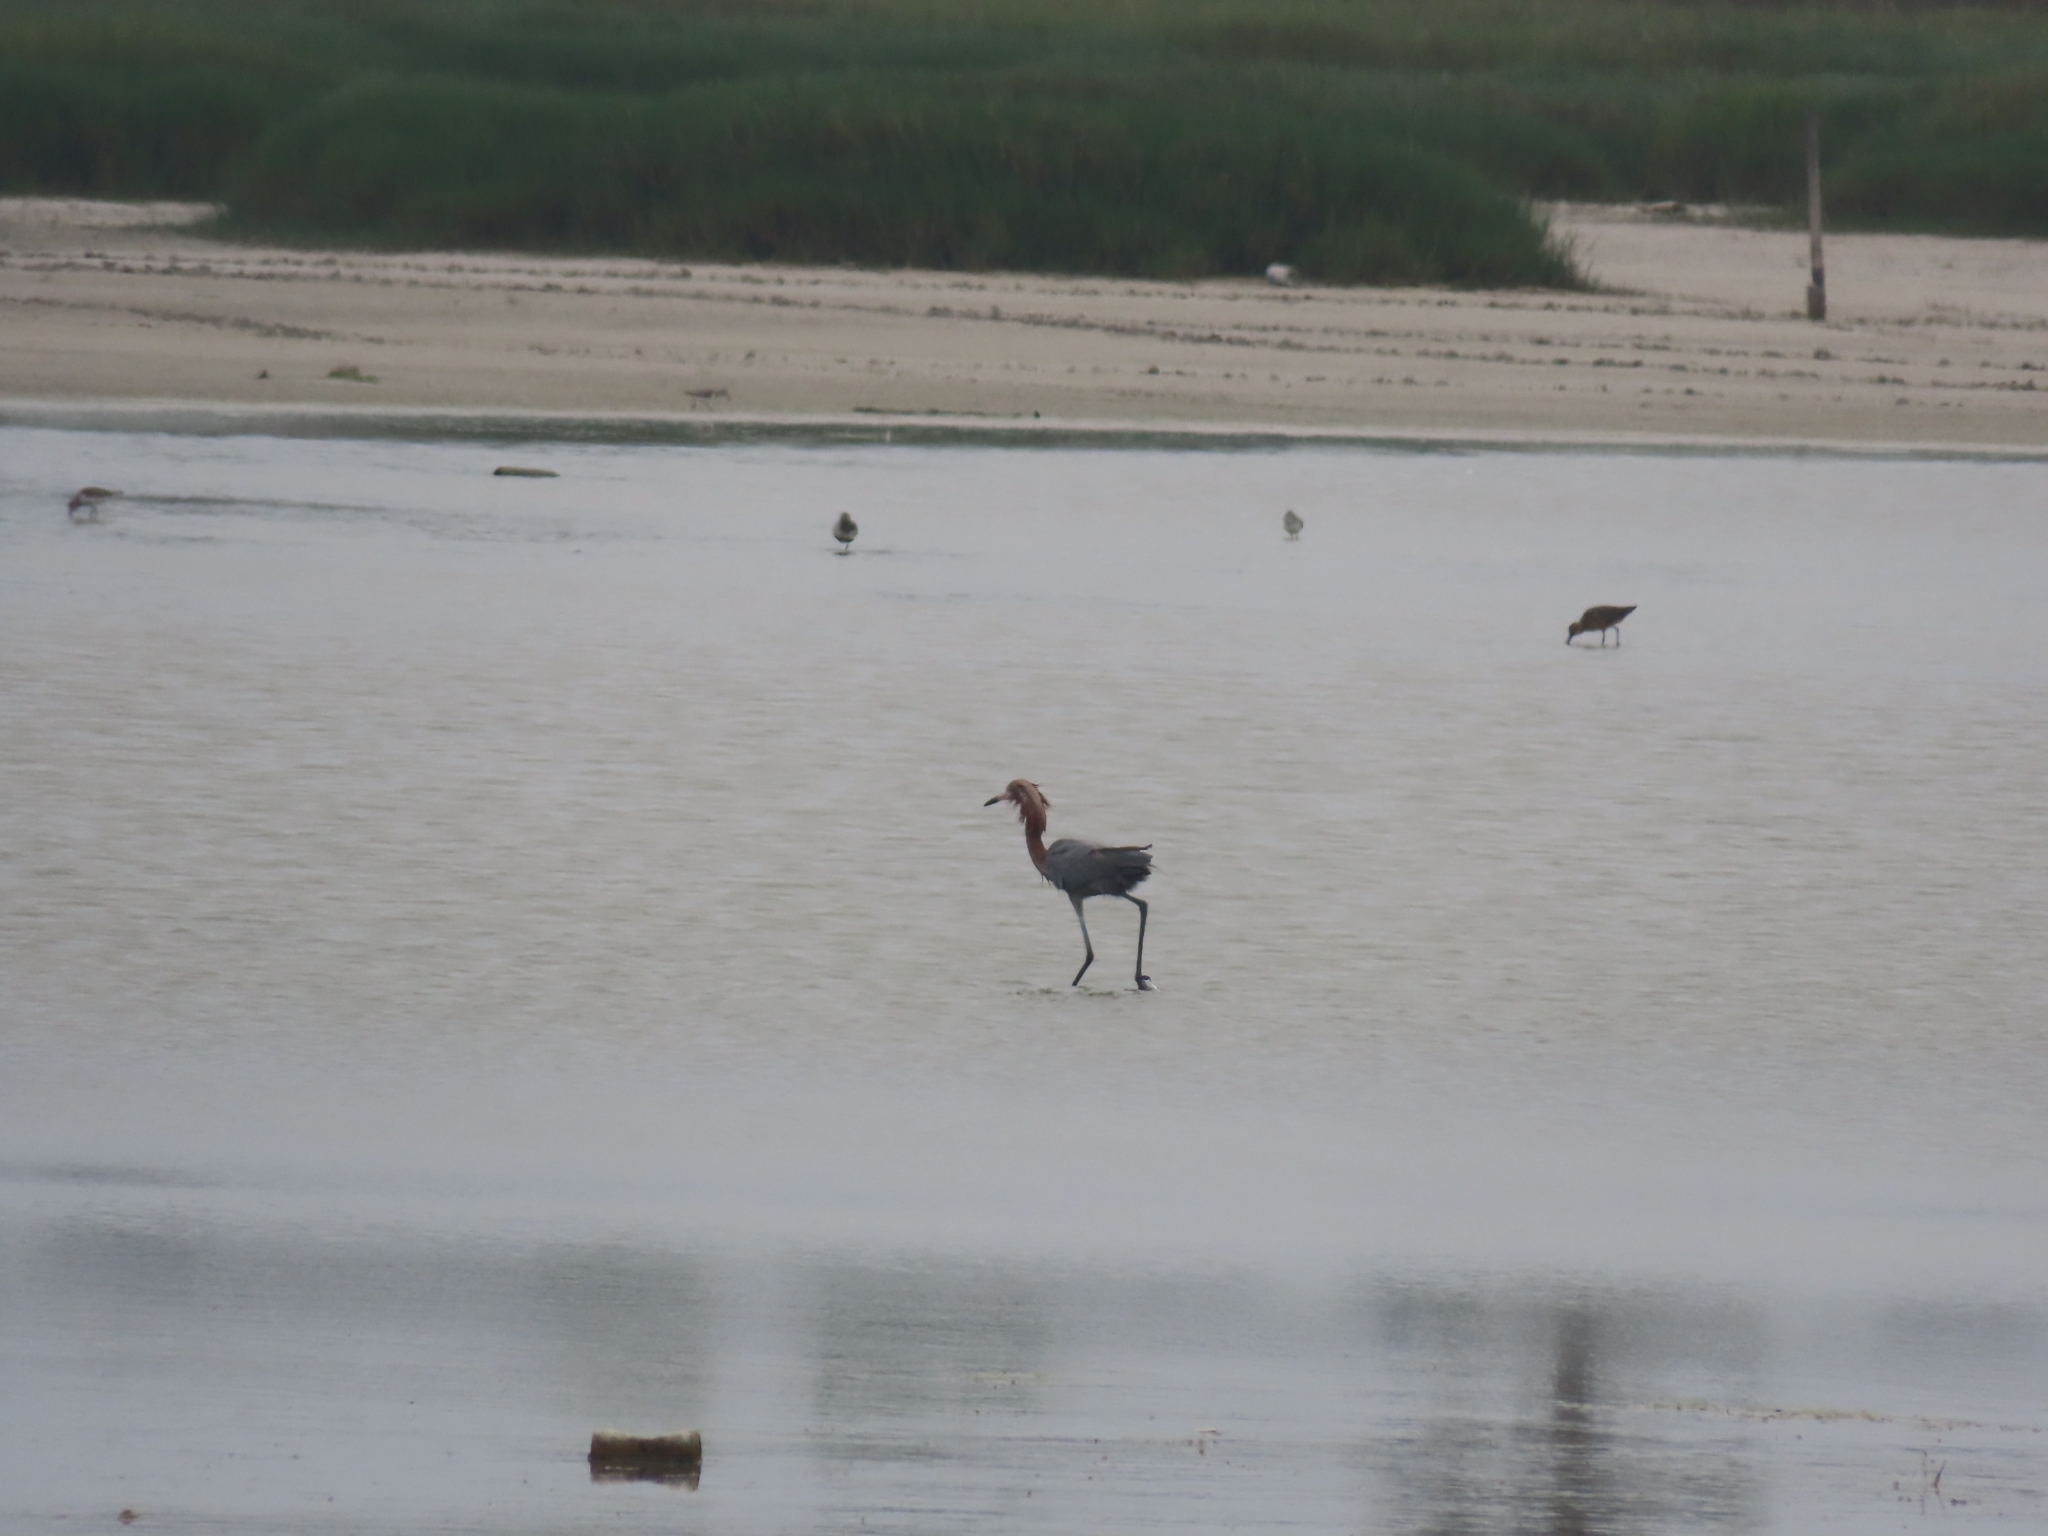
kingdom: Animalia
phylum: Chordata
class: Aves
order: Pelecaniformes
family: Ardeidae
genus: Egretta
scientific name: Egretta rufescens
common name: Reddish egret
